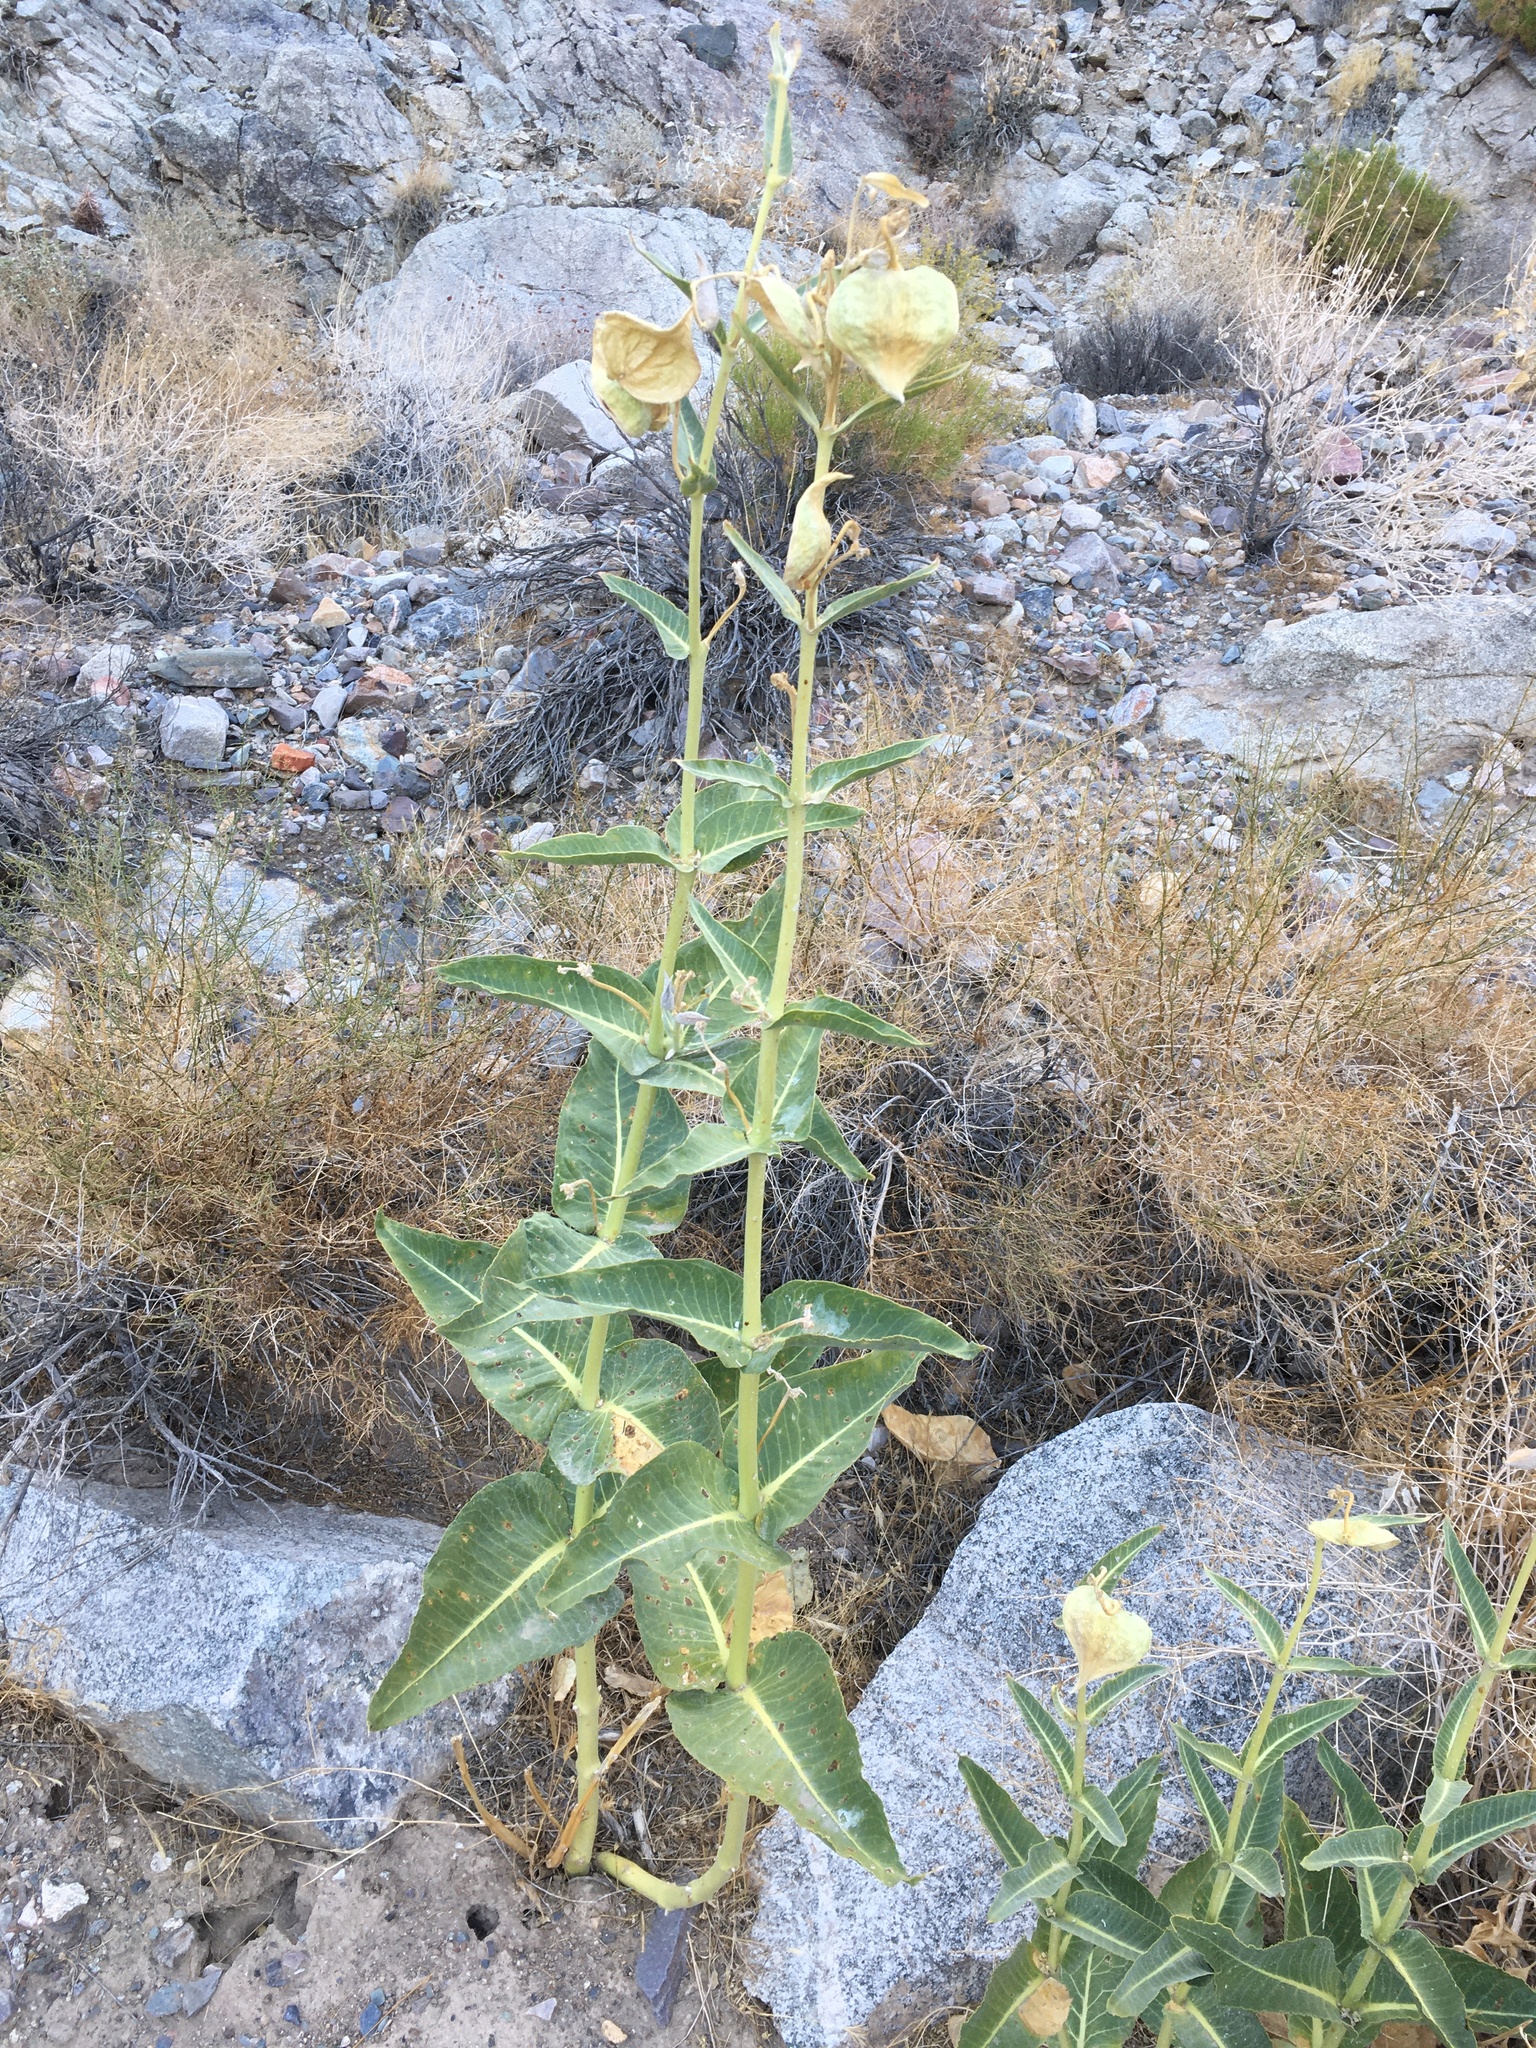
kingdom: Plantae
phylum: Tracheophyta
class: Magnoliopsida
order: Gentianales
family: Apocynaceae
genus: Asclepias
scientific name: Asclepias erosa
